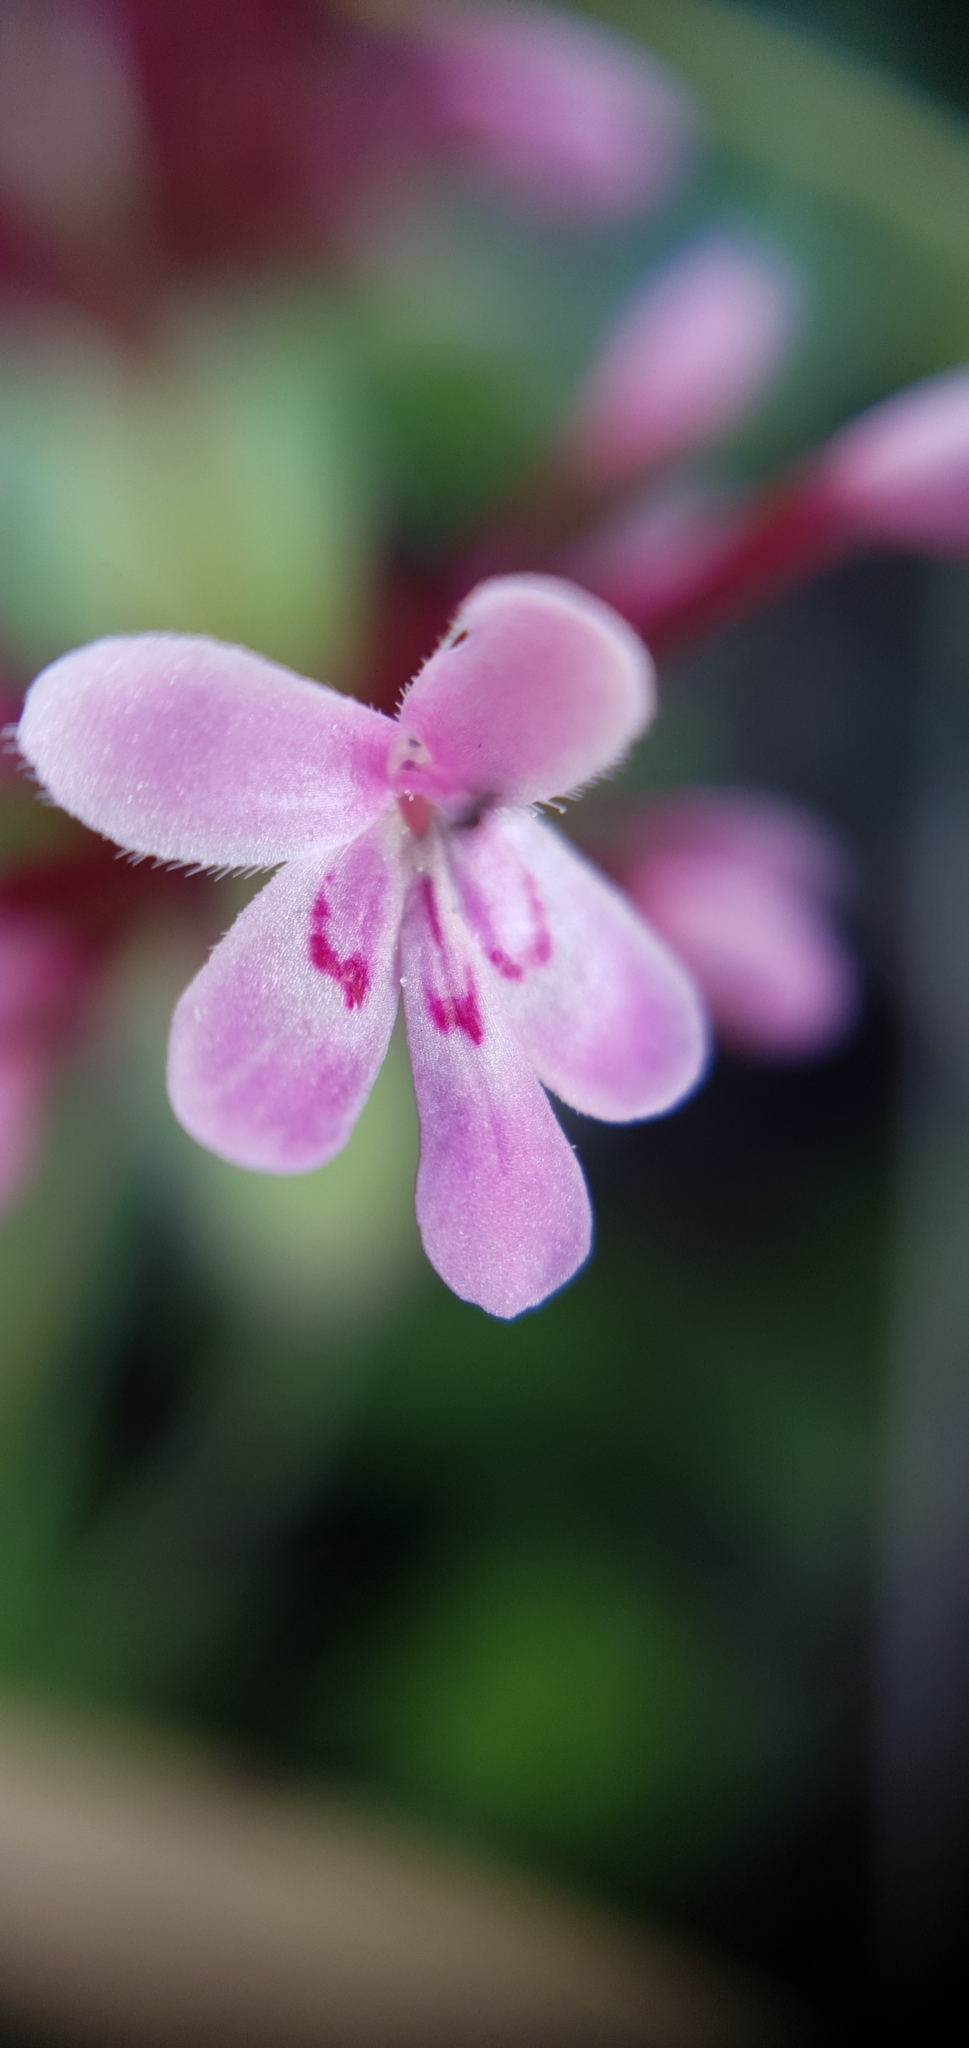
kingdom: Plantae
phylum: Tracheophyta
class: Magnoliopsida
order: Dipsacales
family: Caprifoliaceae
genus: Fedia
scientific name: Fedia graciliflora
